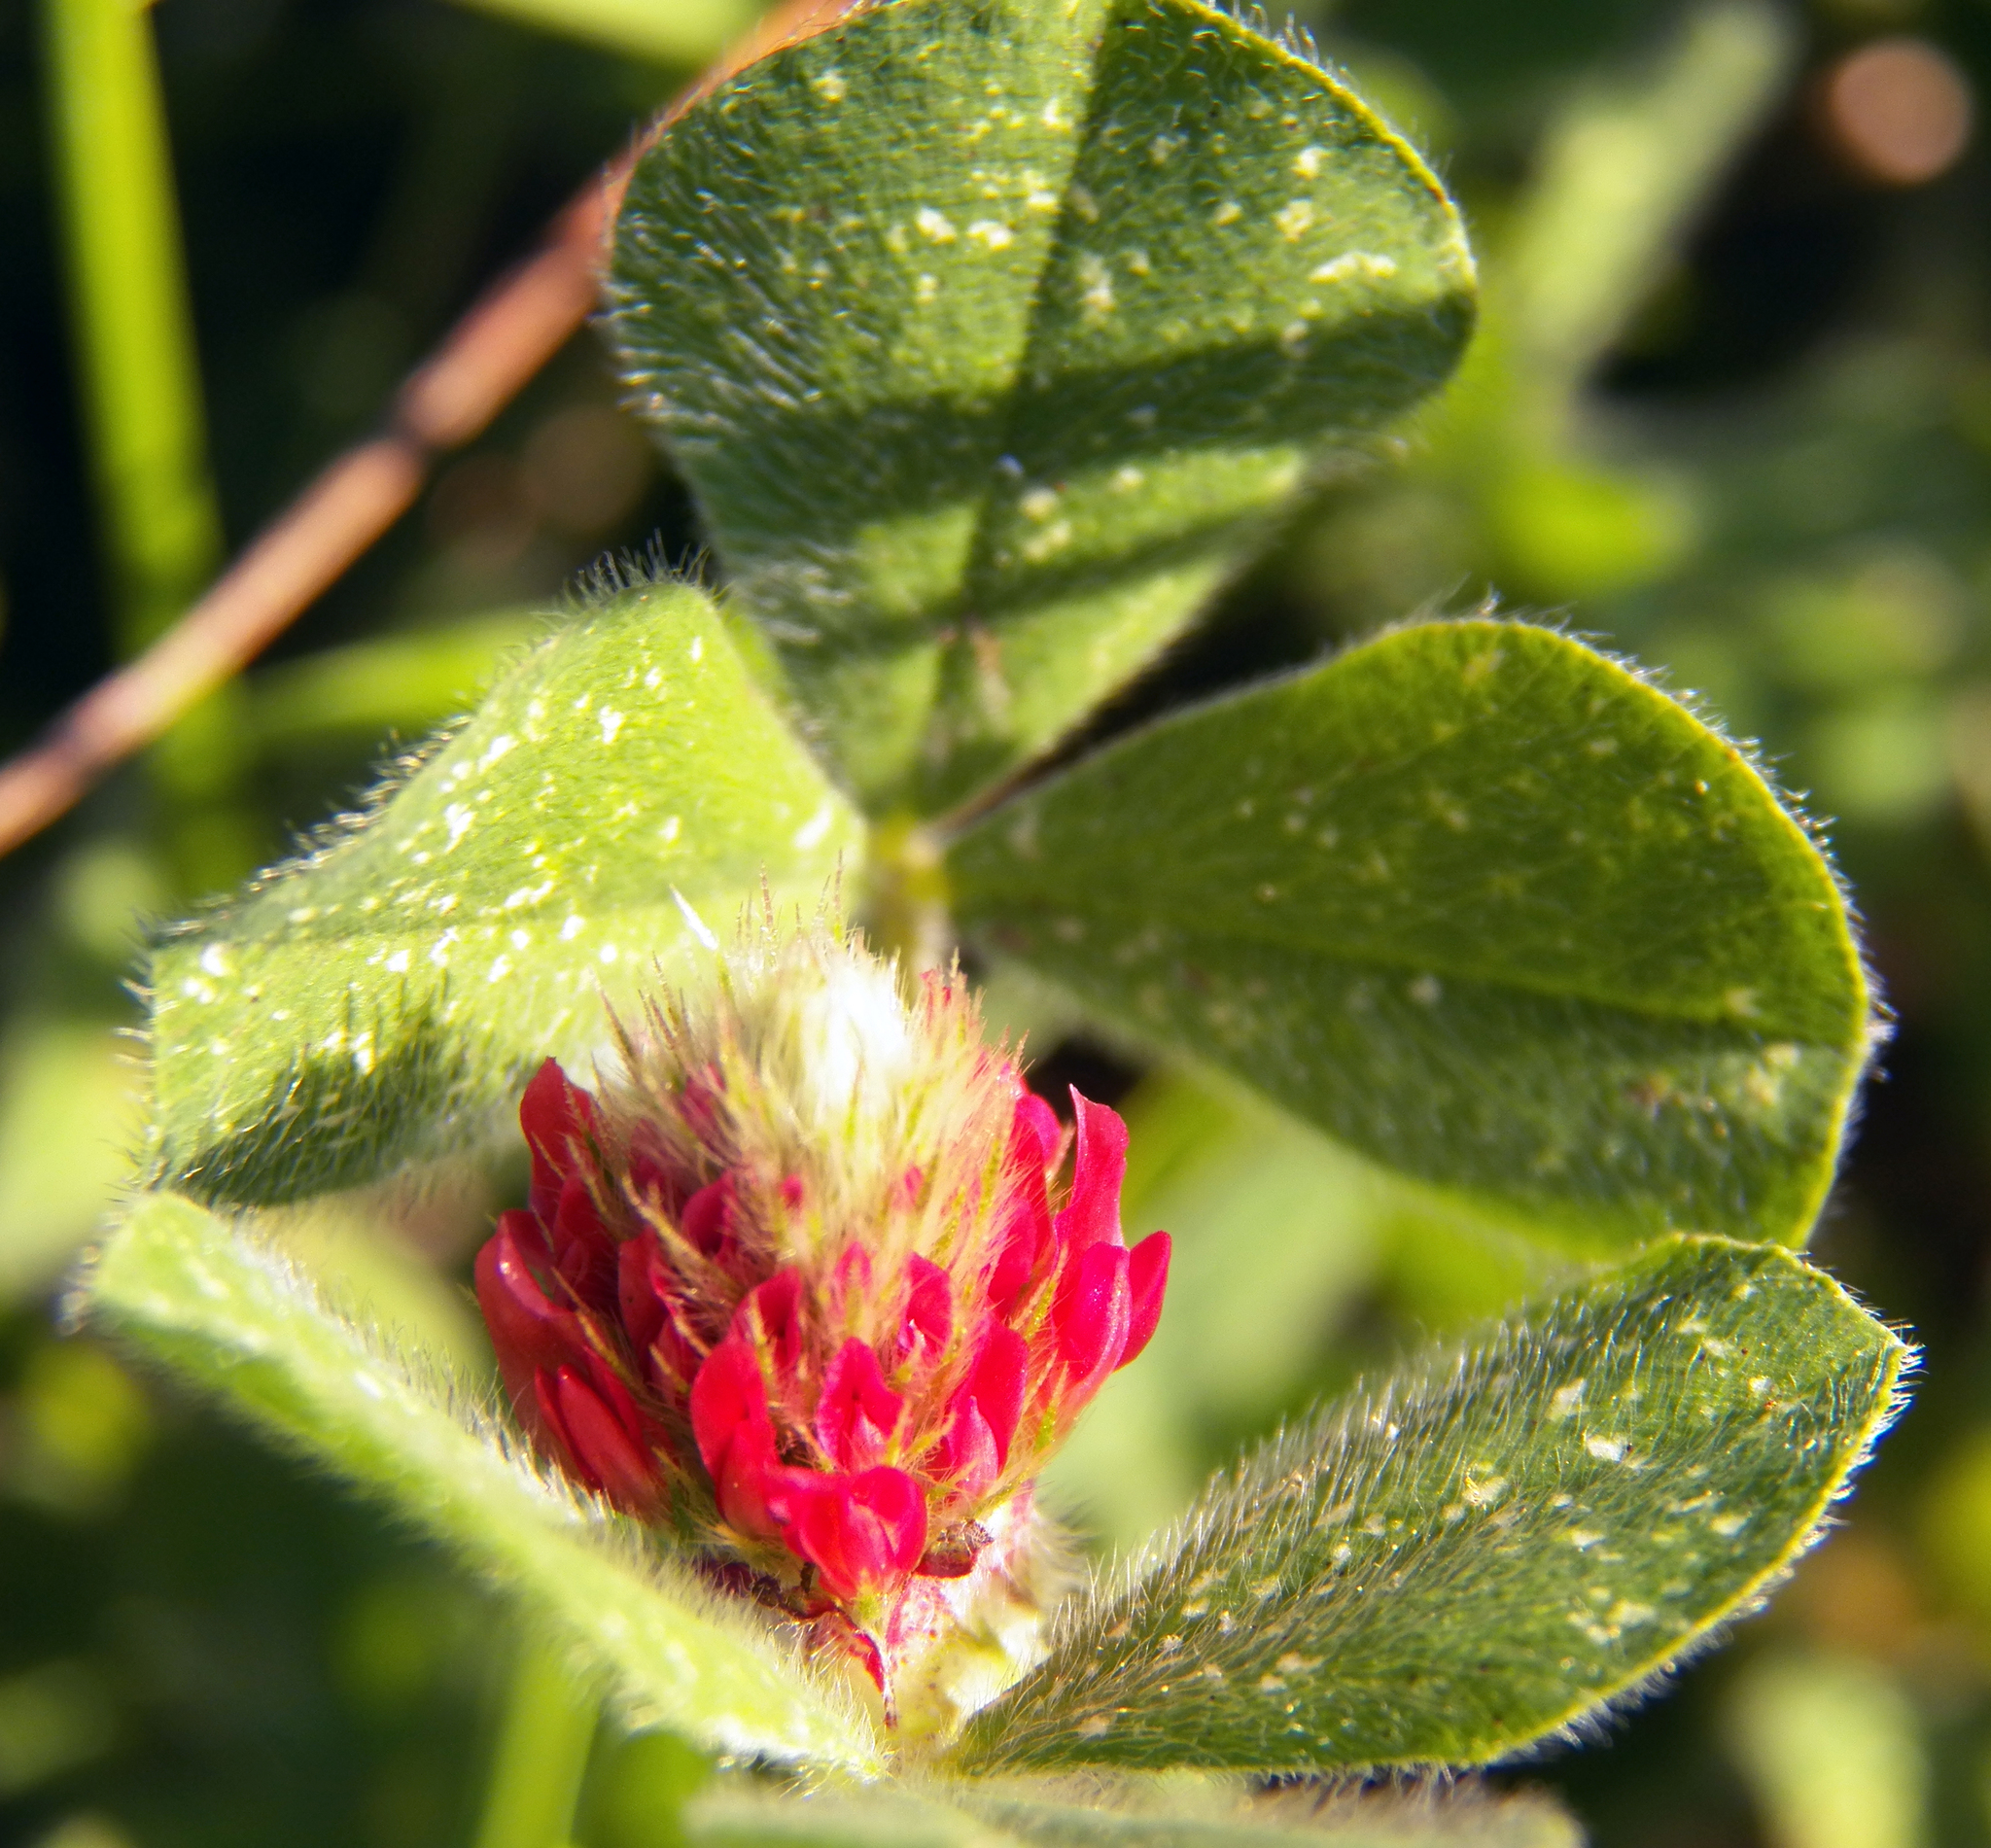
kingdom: Plantae
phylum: Tracheophyta
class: Magnoliopsida
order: Fabales
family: Fabaceae
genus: Trifolium
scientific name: Trifolium incarnatum
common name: Crimson clover
